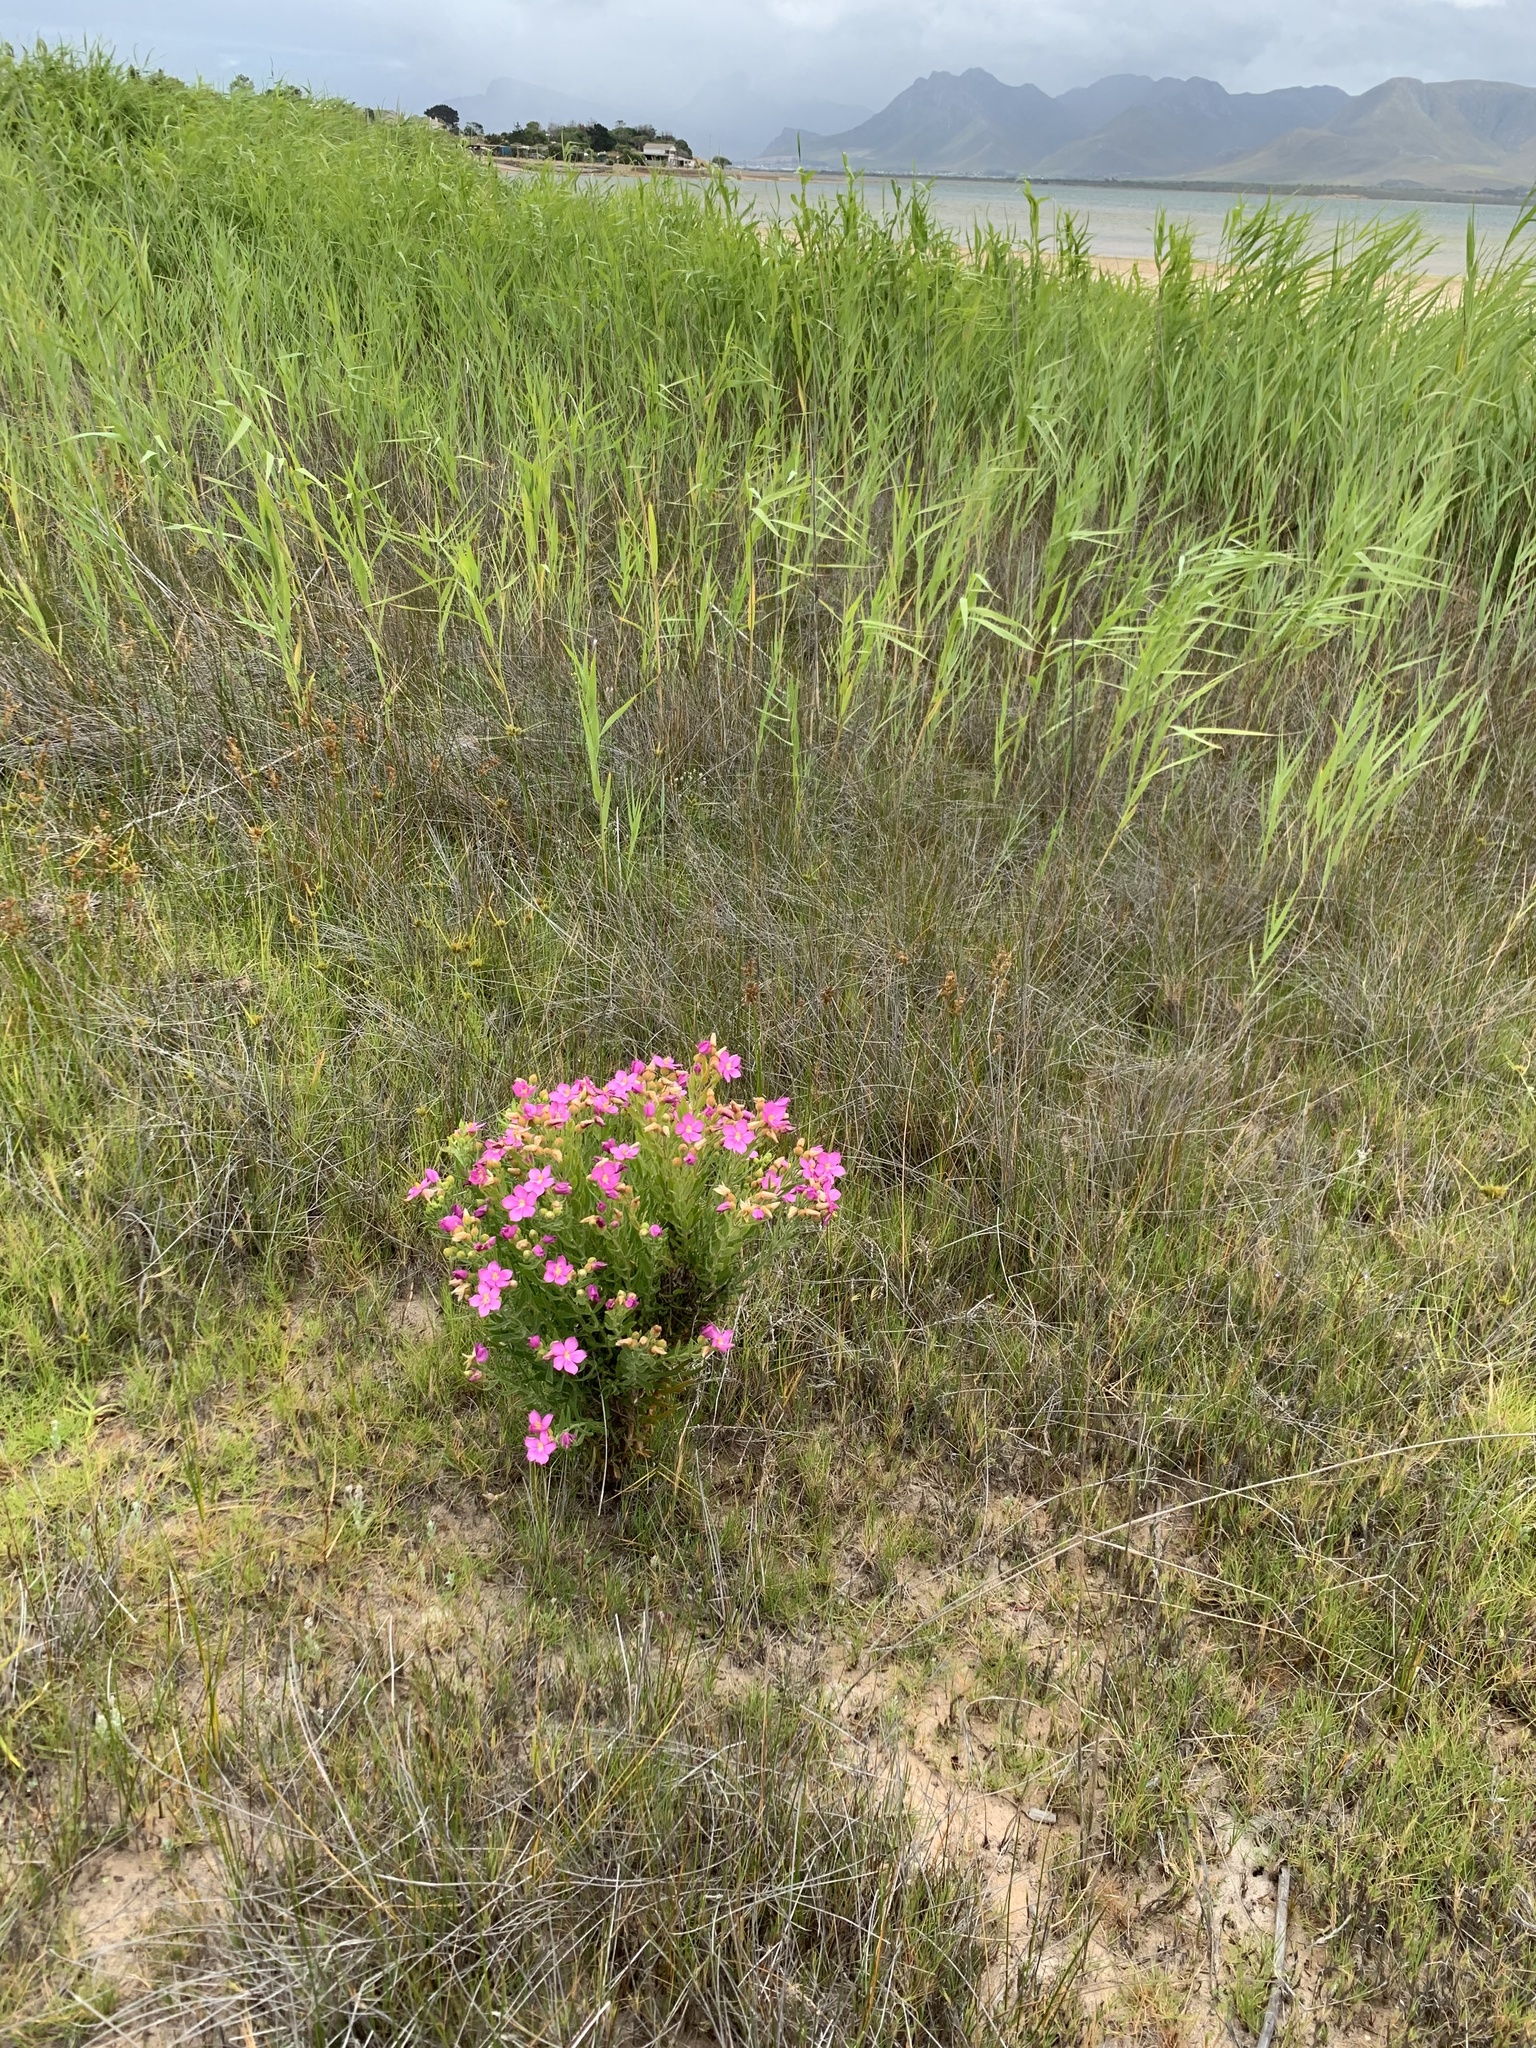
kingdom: Plantae
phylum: Tracheophyta
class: Magnoliopsida
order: Gentianales
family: Gentianaceae
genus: Orphium
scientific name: Orphium frutescens
